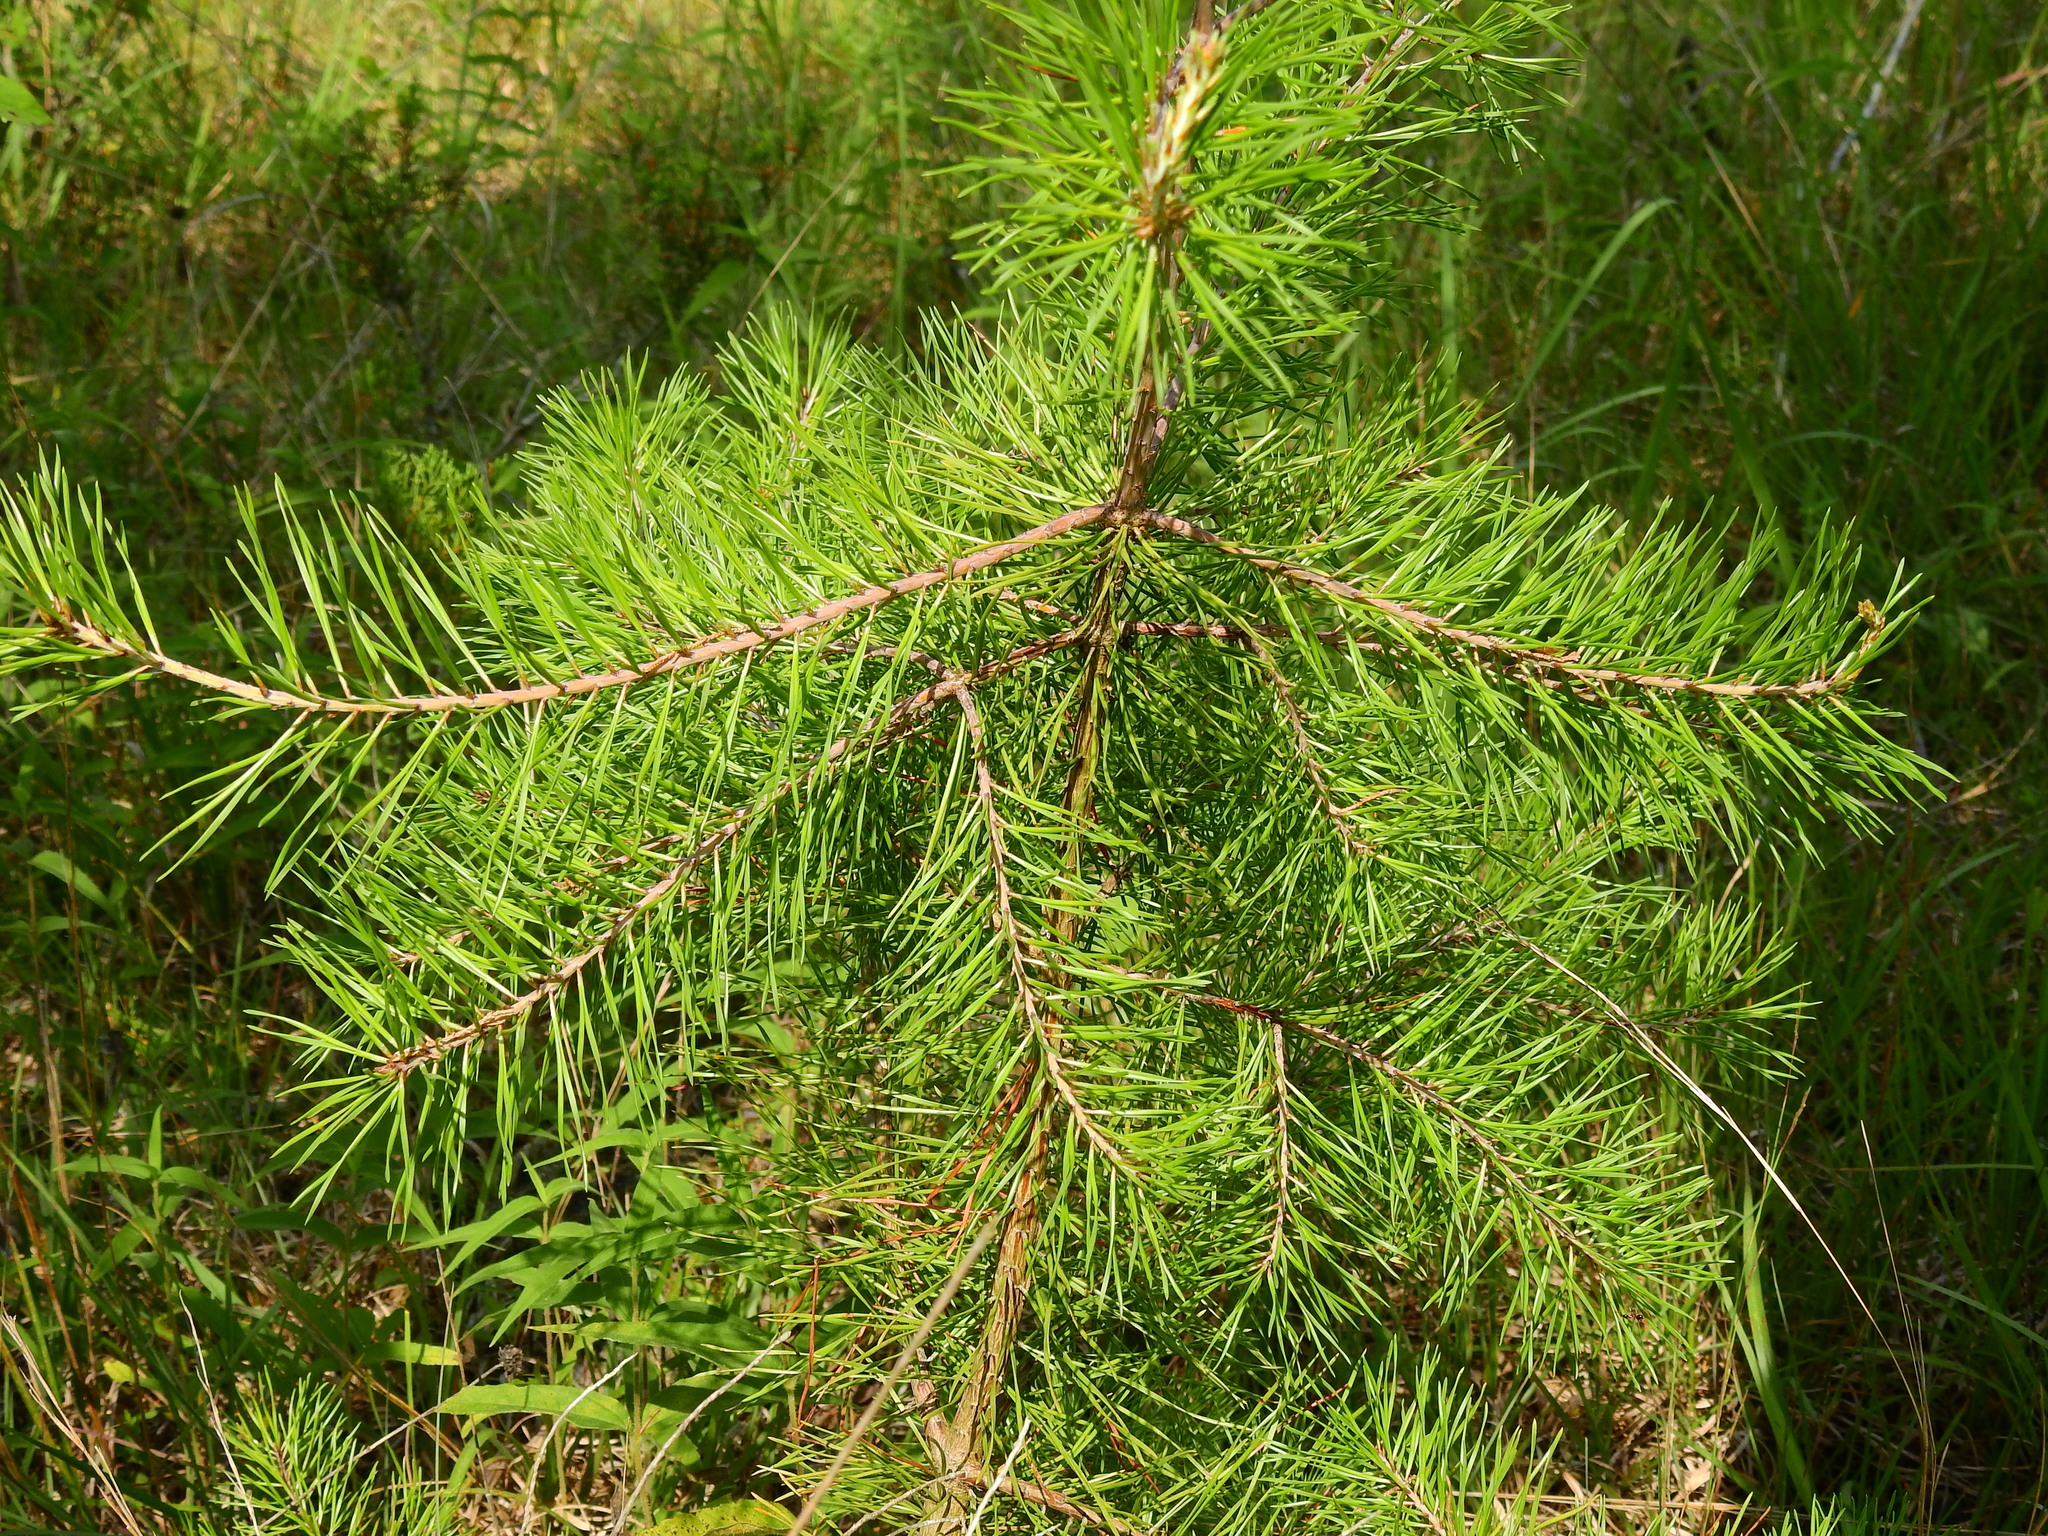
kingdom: Plantae
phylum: Tracheophyta
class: Pinopsida
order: Pinales
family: Pinaceae
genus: Pinus
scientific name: Pinus virginiana
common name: Scrub pine
